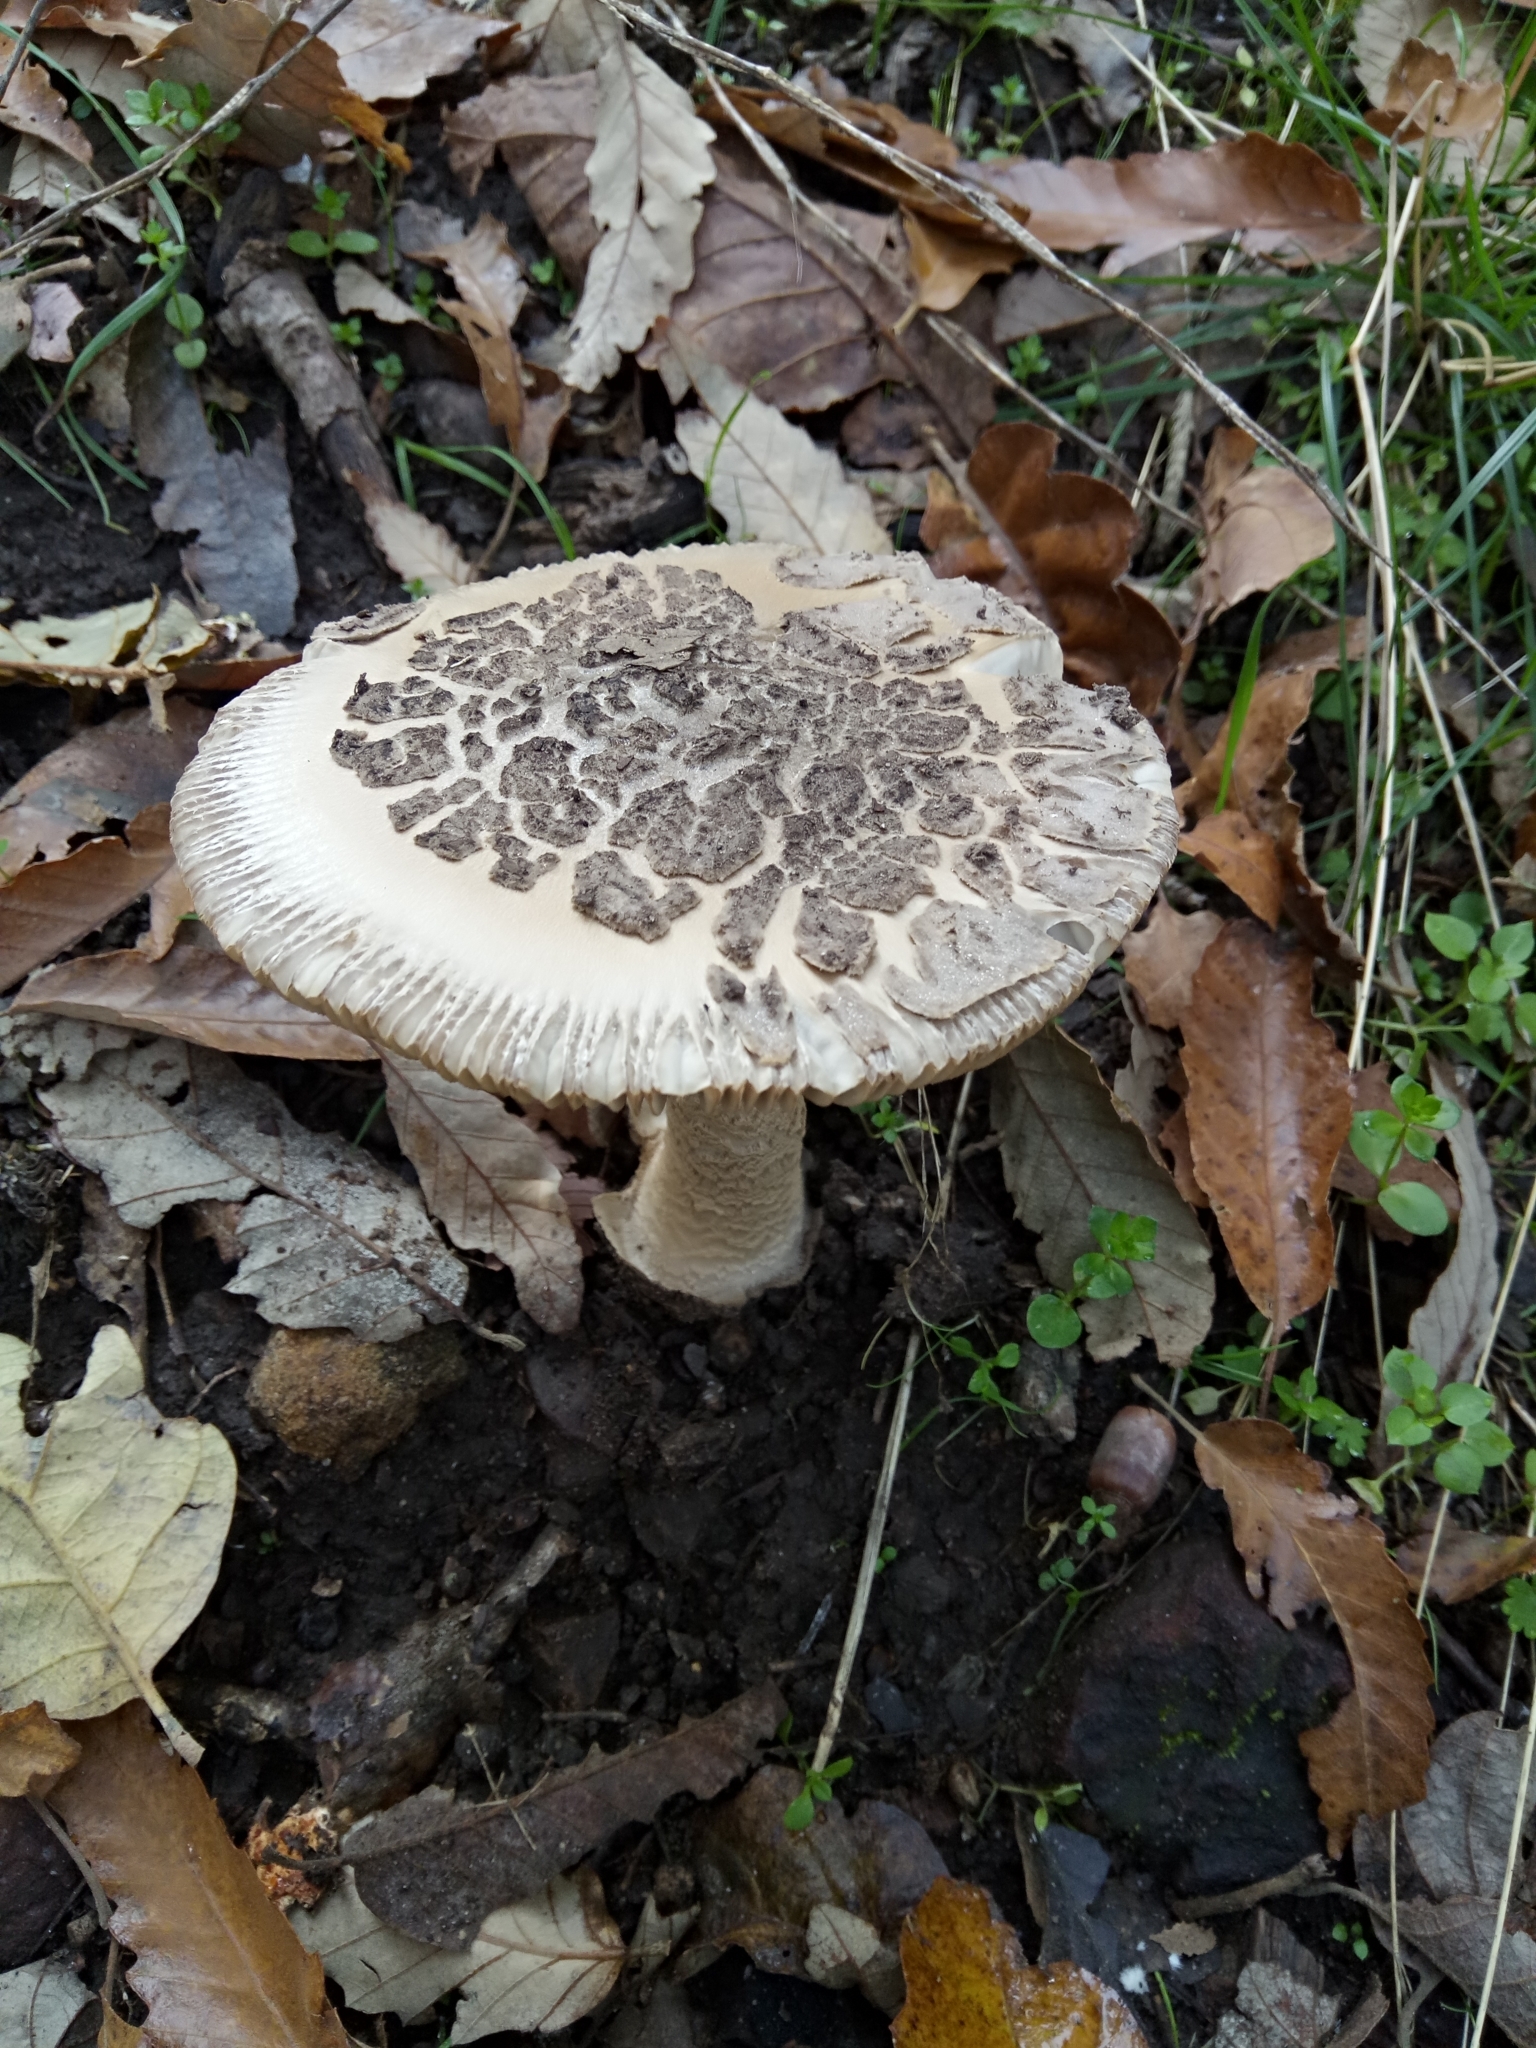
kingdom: Fungi
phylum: Basidiomycota
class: Agaricomycetes
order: Agaricales
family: Amanitaceae
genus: Amanita
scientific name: Amanita ceciliae
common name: Snakeskin grisette
